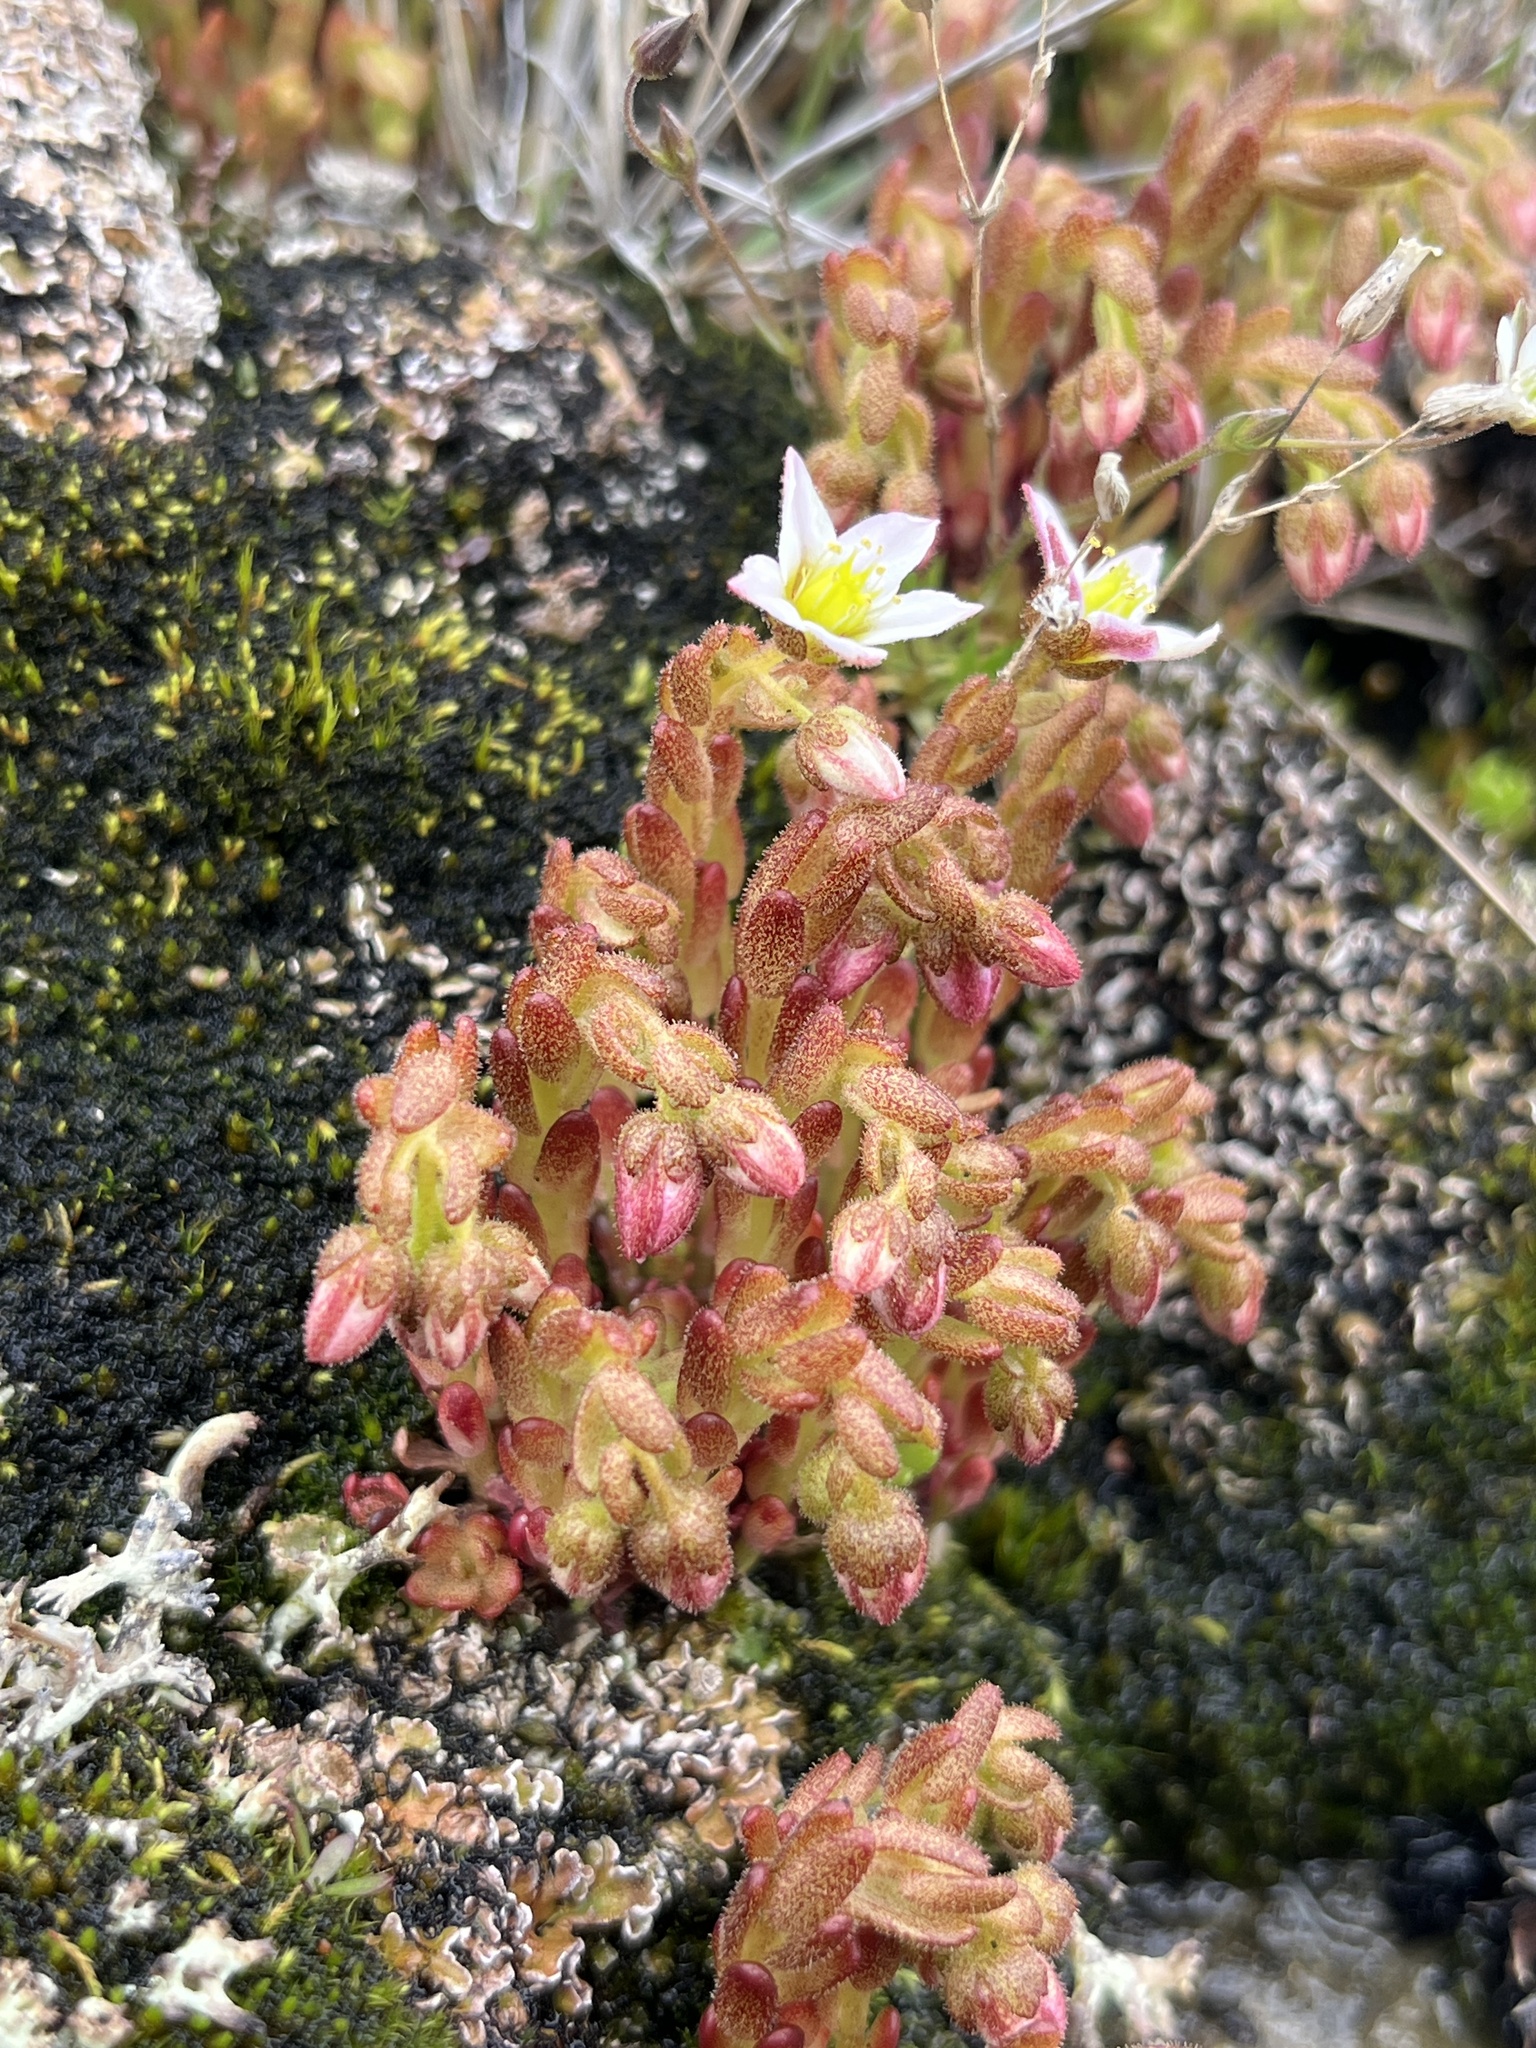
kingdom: Plantae
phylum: Tracheophyta
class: Magnoliopsida
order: Saxifragales
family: Crassulaceae
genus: Sedum
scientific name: Sedum villosum
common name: Hairy stonecrop
